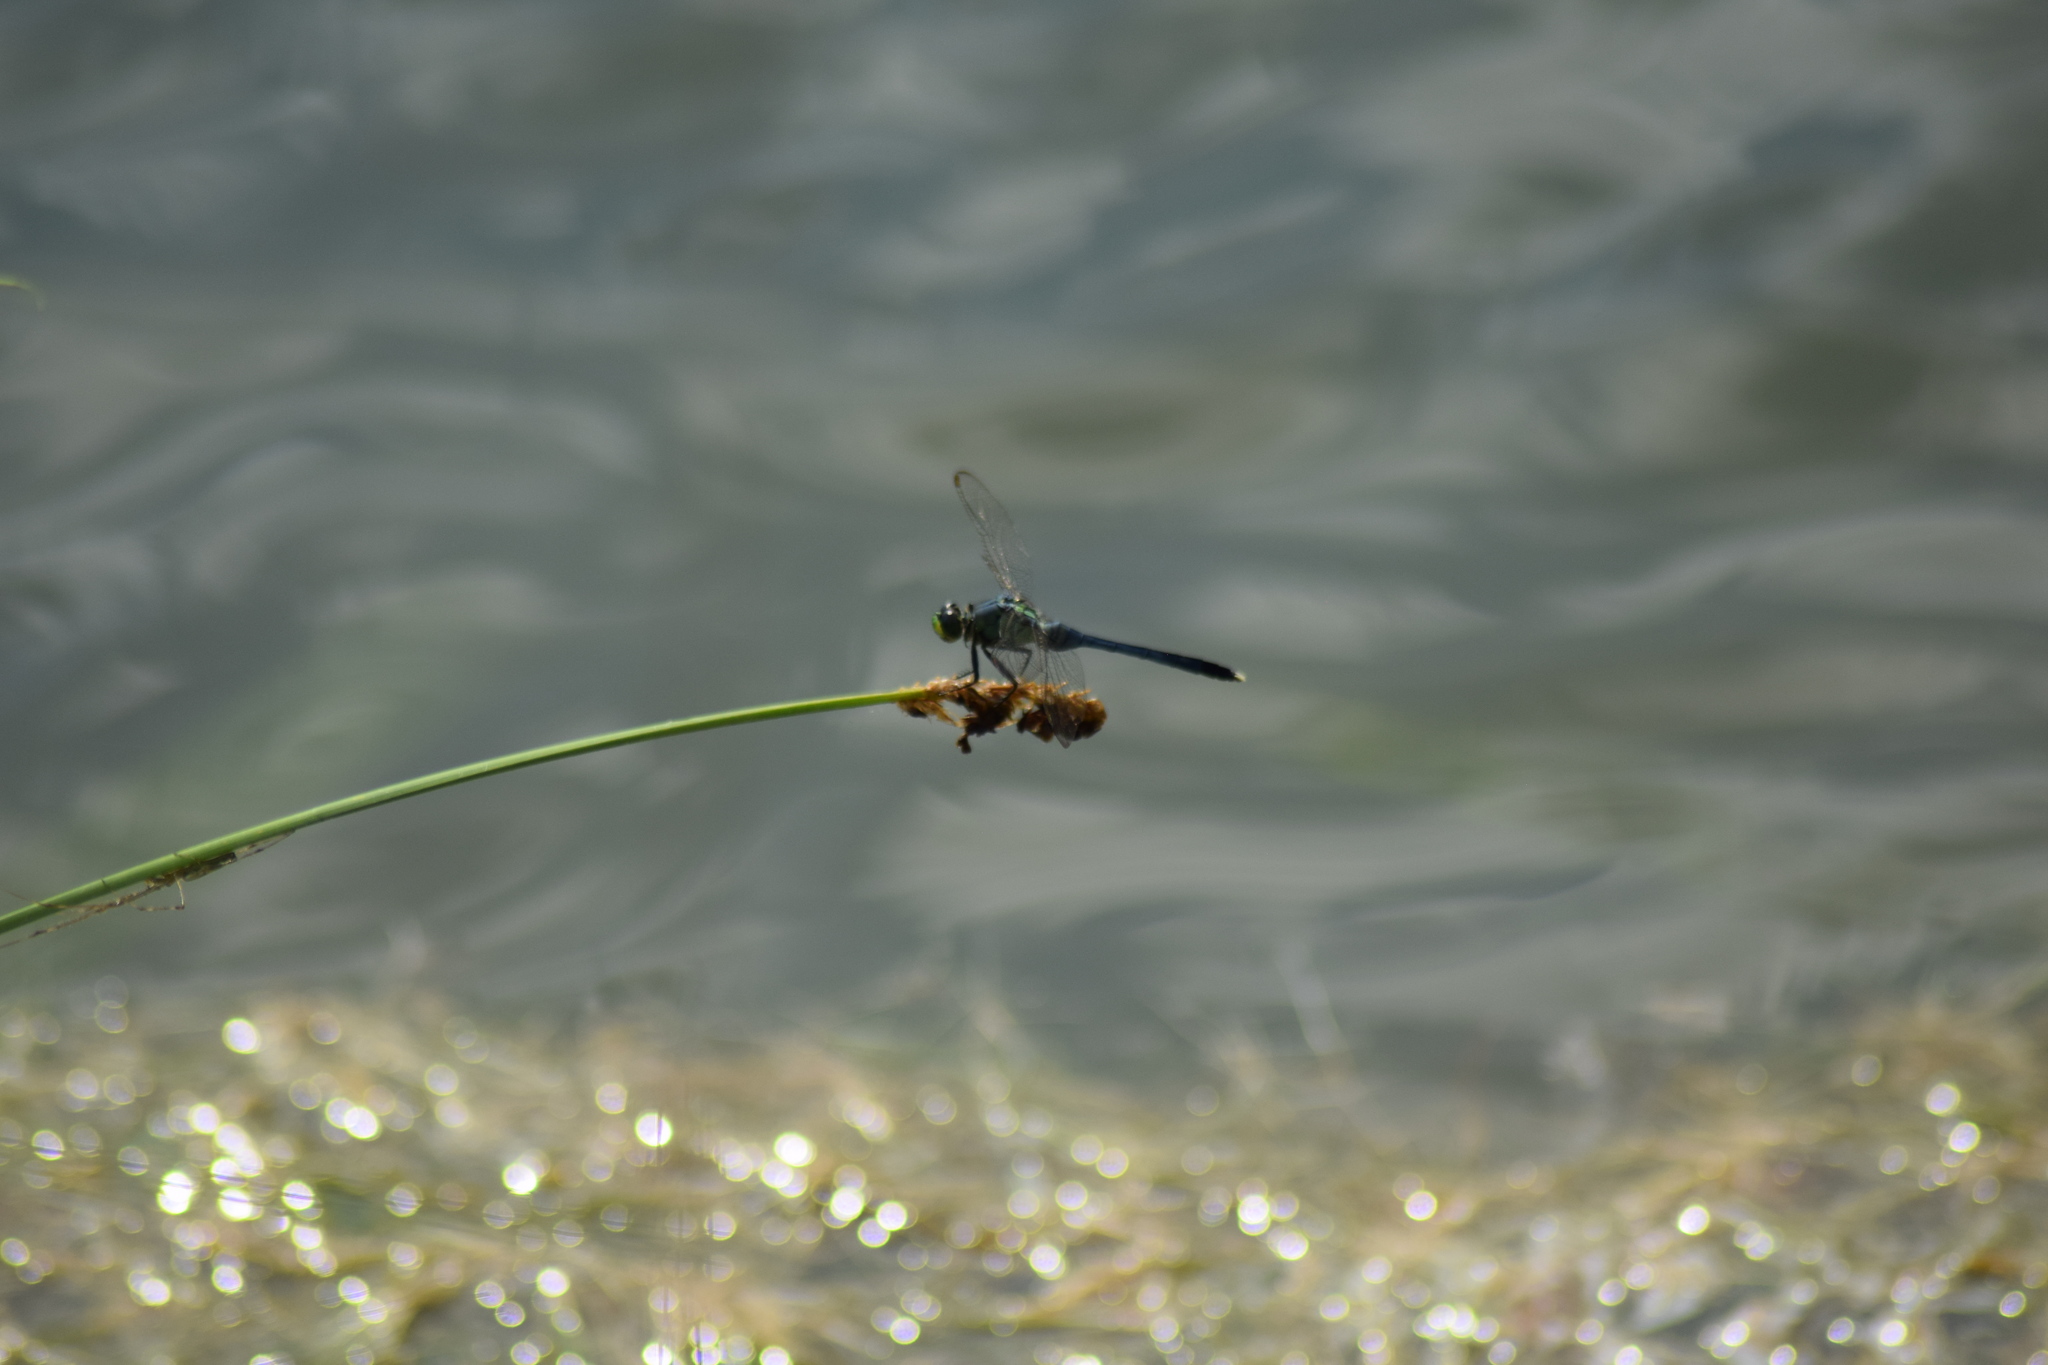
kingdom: Animalia
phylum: Arthropoda
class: Insecta
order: Odonata
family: Libellulidae
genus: Erythemis
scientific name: Erythemis simplicicollis
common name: Eastern pondhawk
